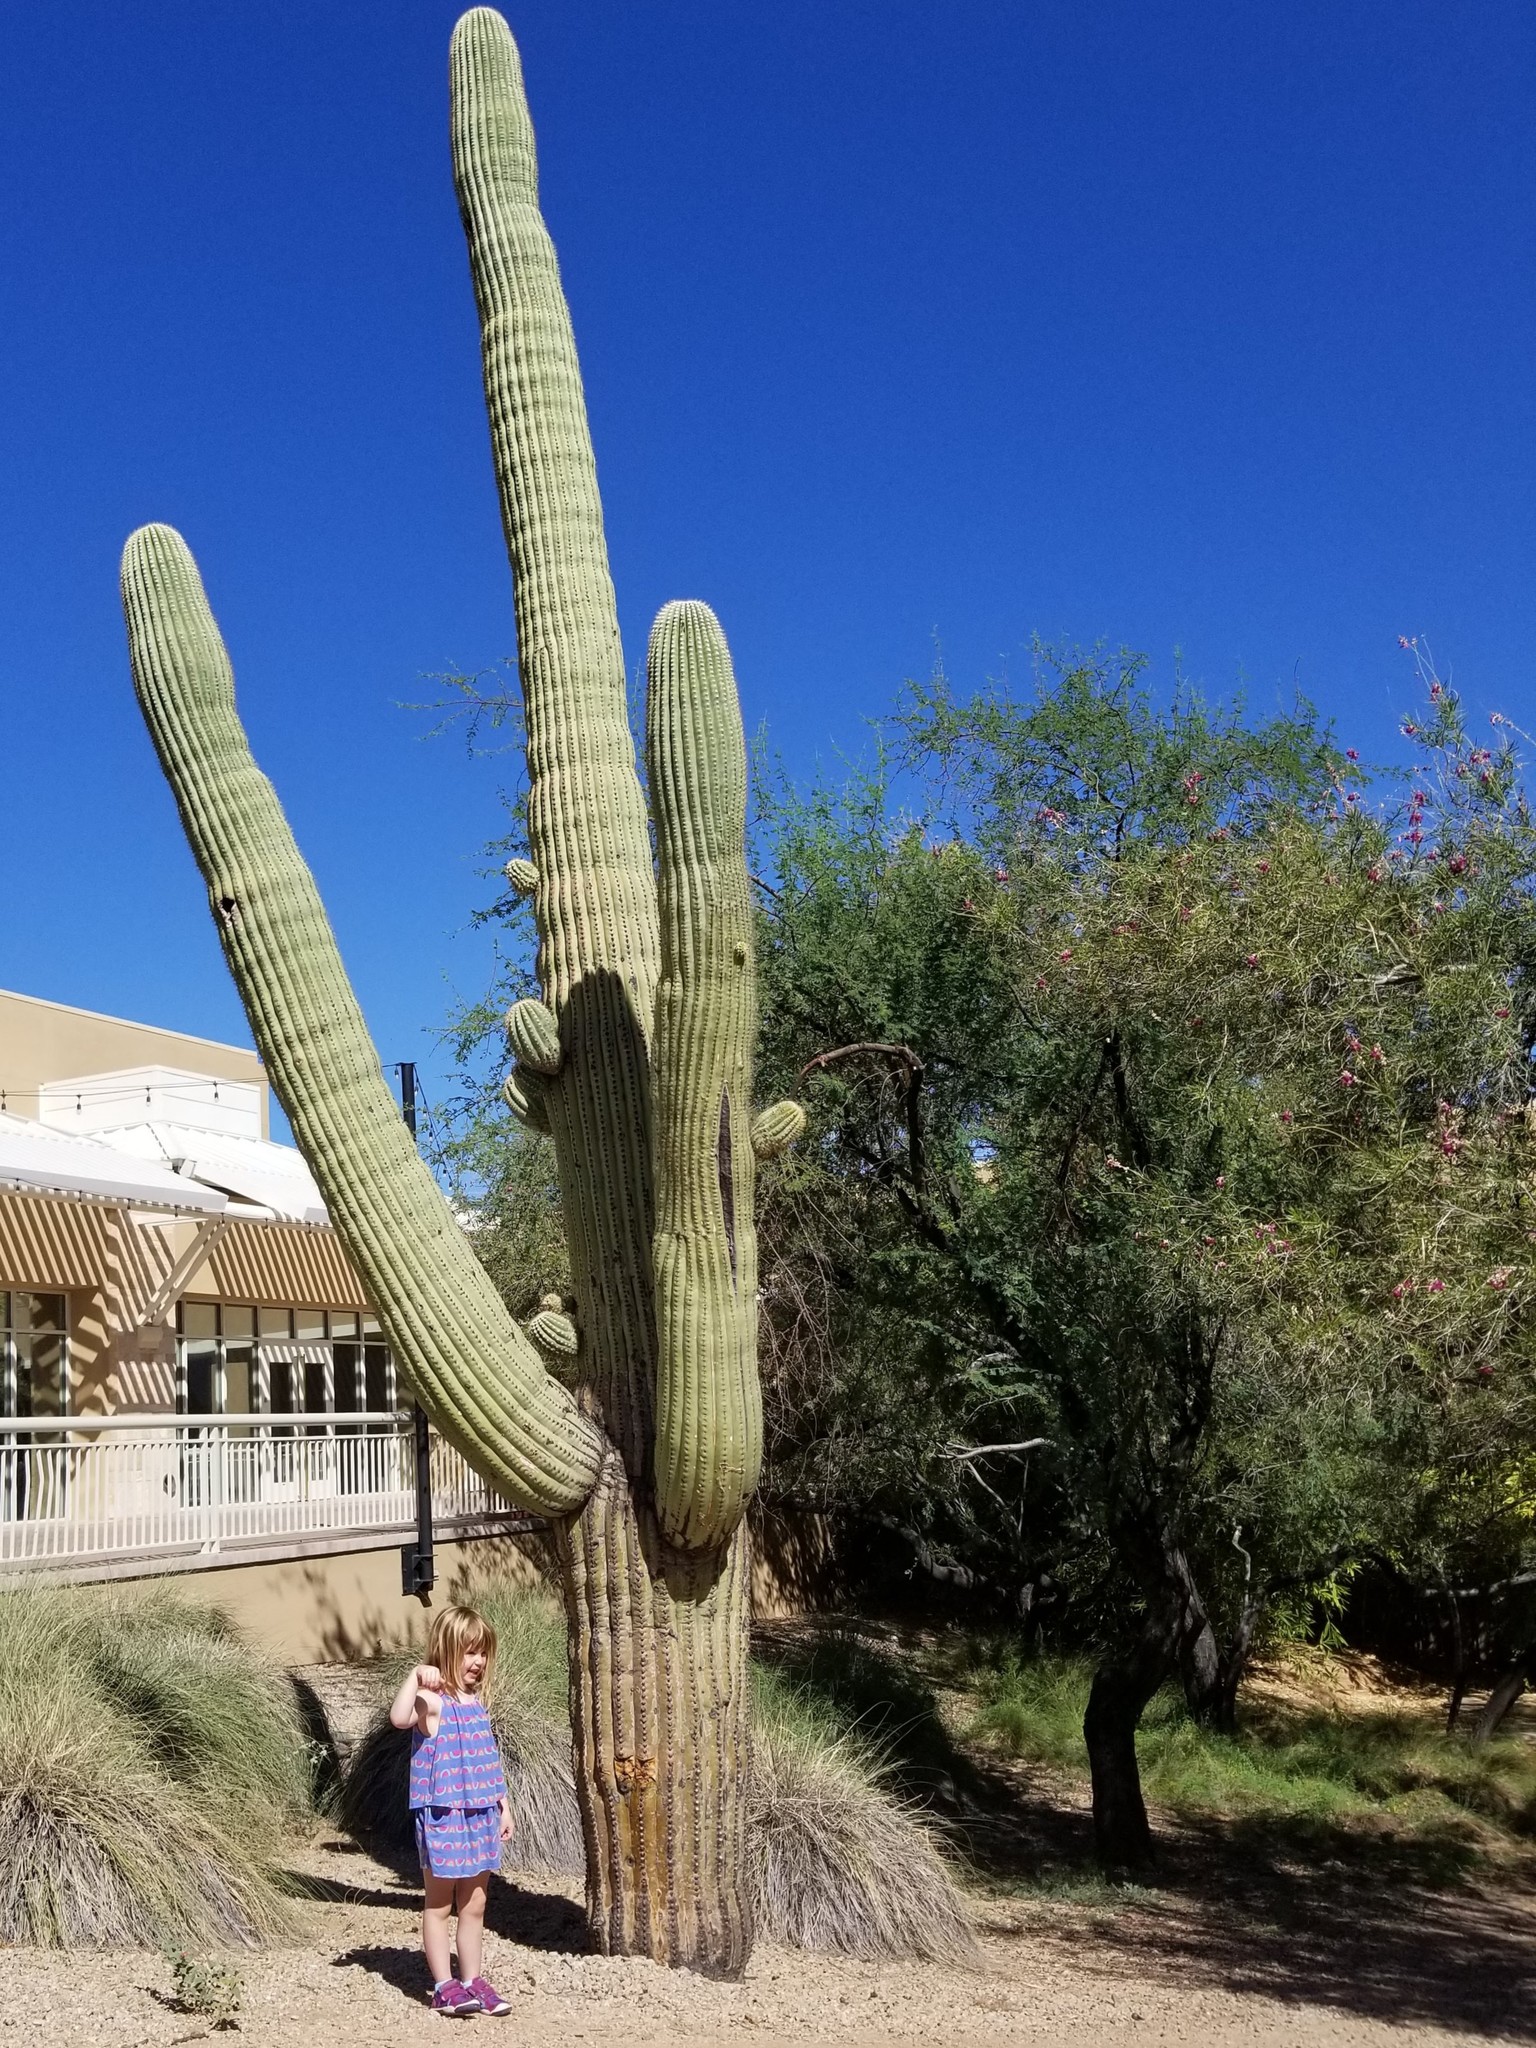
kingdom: Plantae
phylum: Tracheophyta
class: Magnoliopsida
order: Caryophyllales
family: Cactaceae
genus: Carnegiea
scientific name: Carnegiea gigantea
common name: Saguaro
